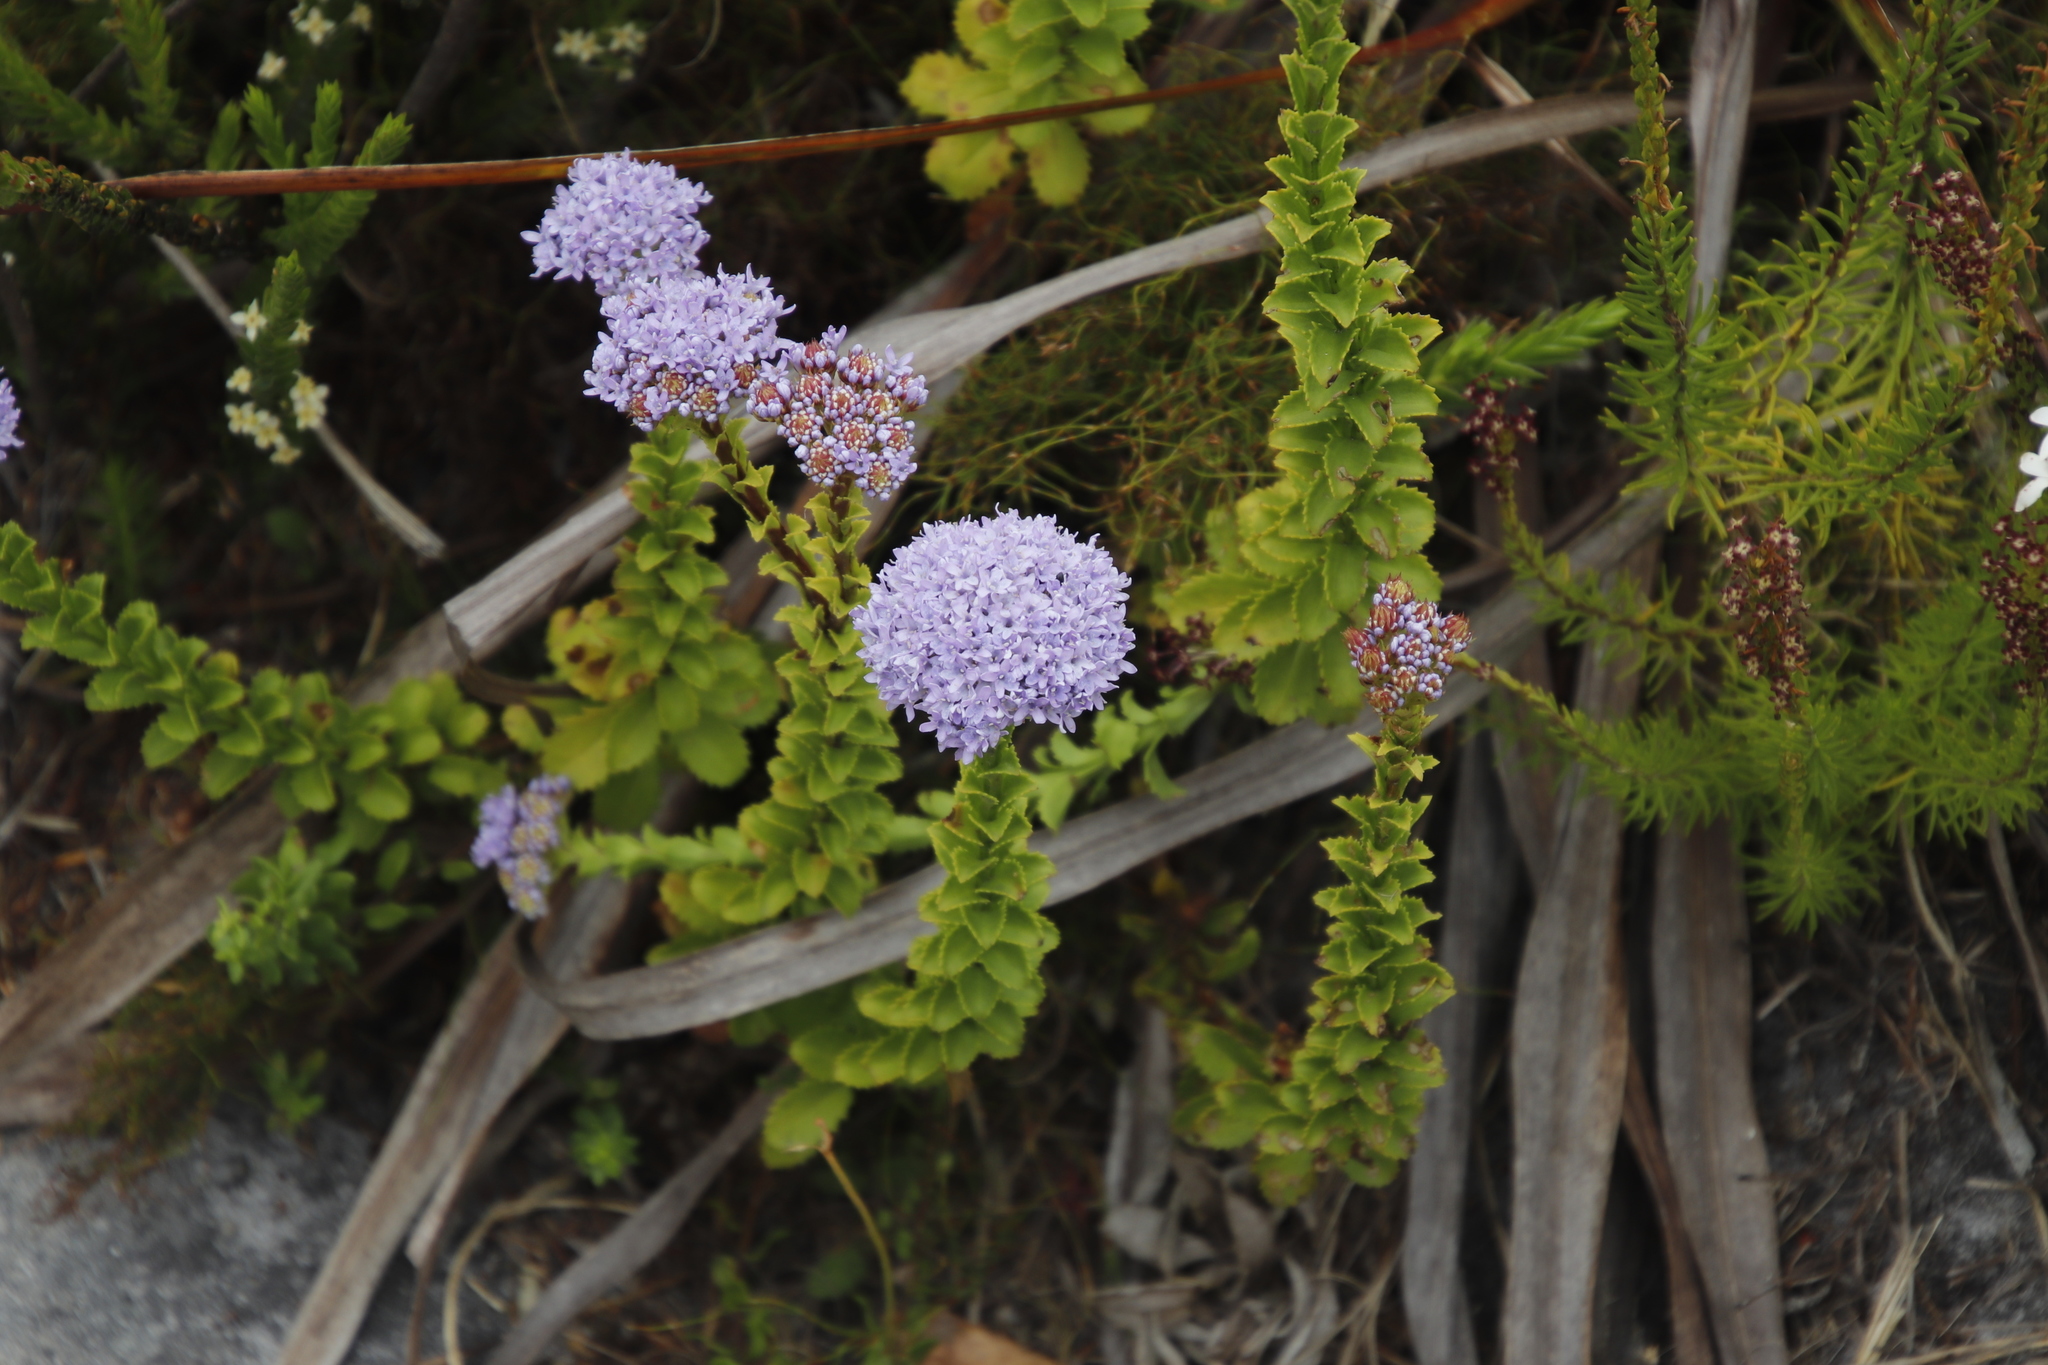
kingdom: Plantae
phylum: Tracheophyta
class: Magnoliopsida
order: Lamiales
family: Scrophulariaceae
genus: Pseudoselago
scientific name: Pseudoselago serrata
